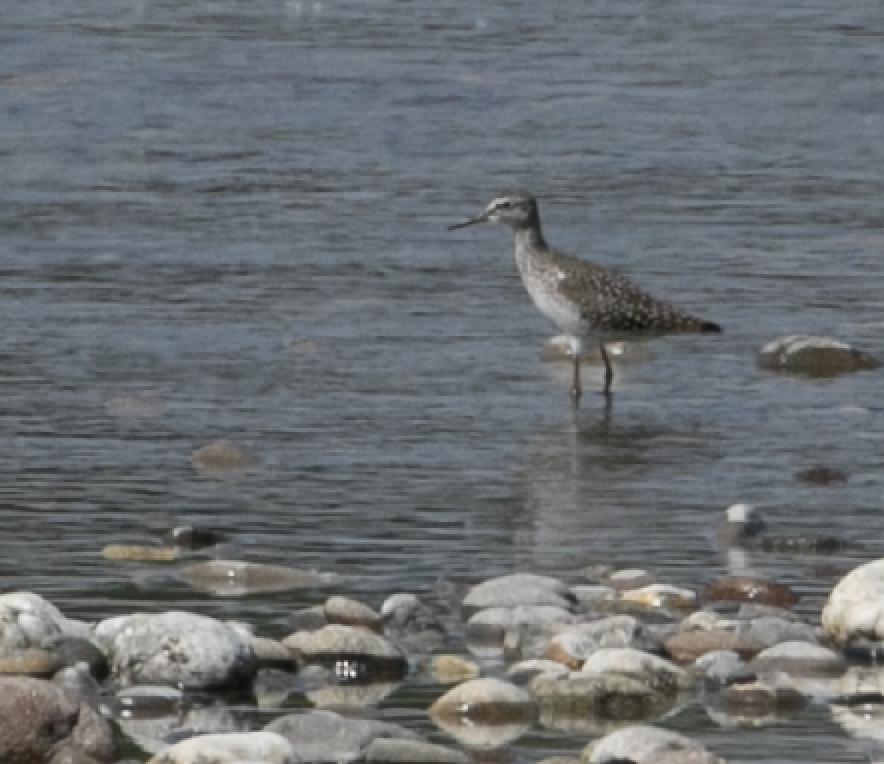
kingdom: Animalia
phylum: Chordata
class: Aves
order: Charadriiformes
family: Scolopacidae
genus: Tringa
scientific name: Tringa glareola
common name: Wood sandpiper
